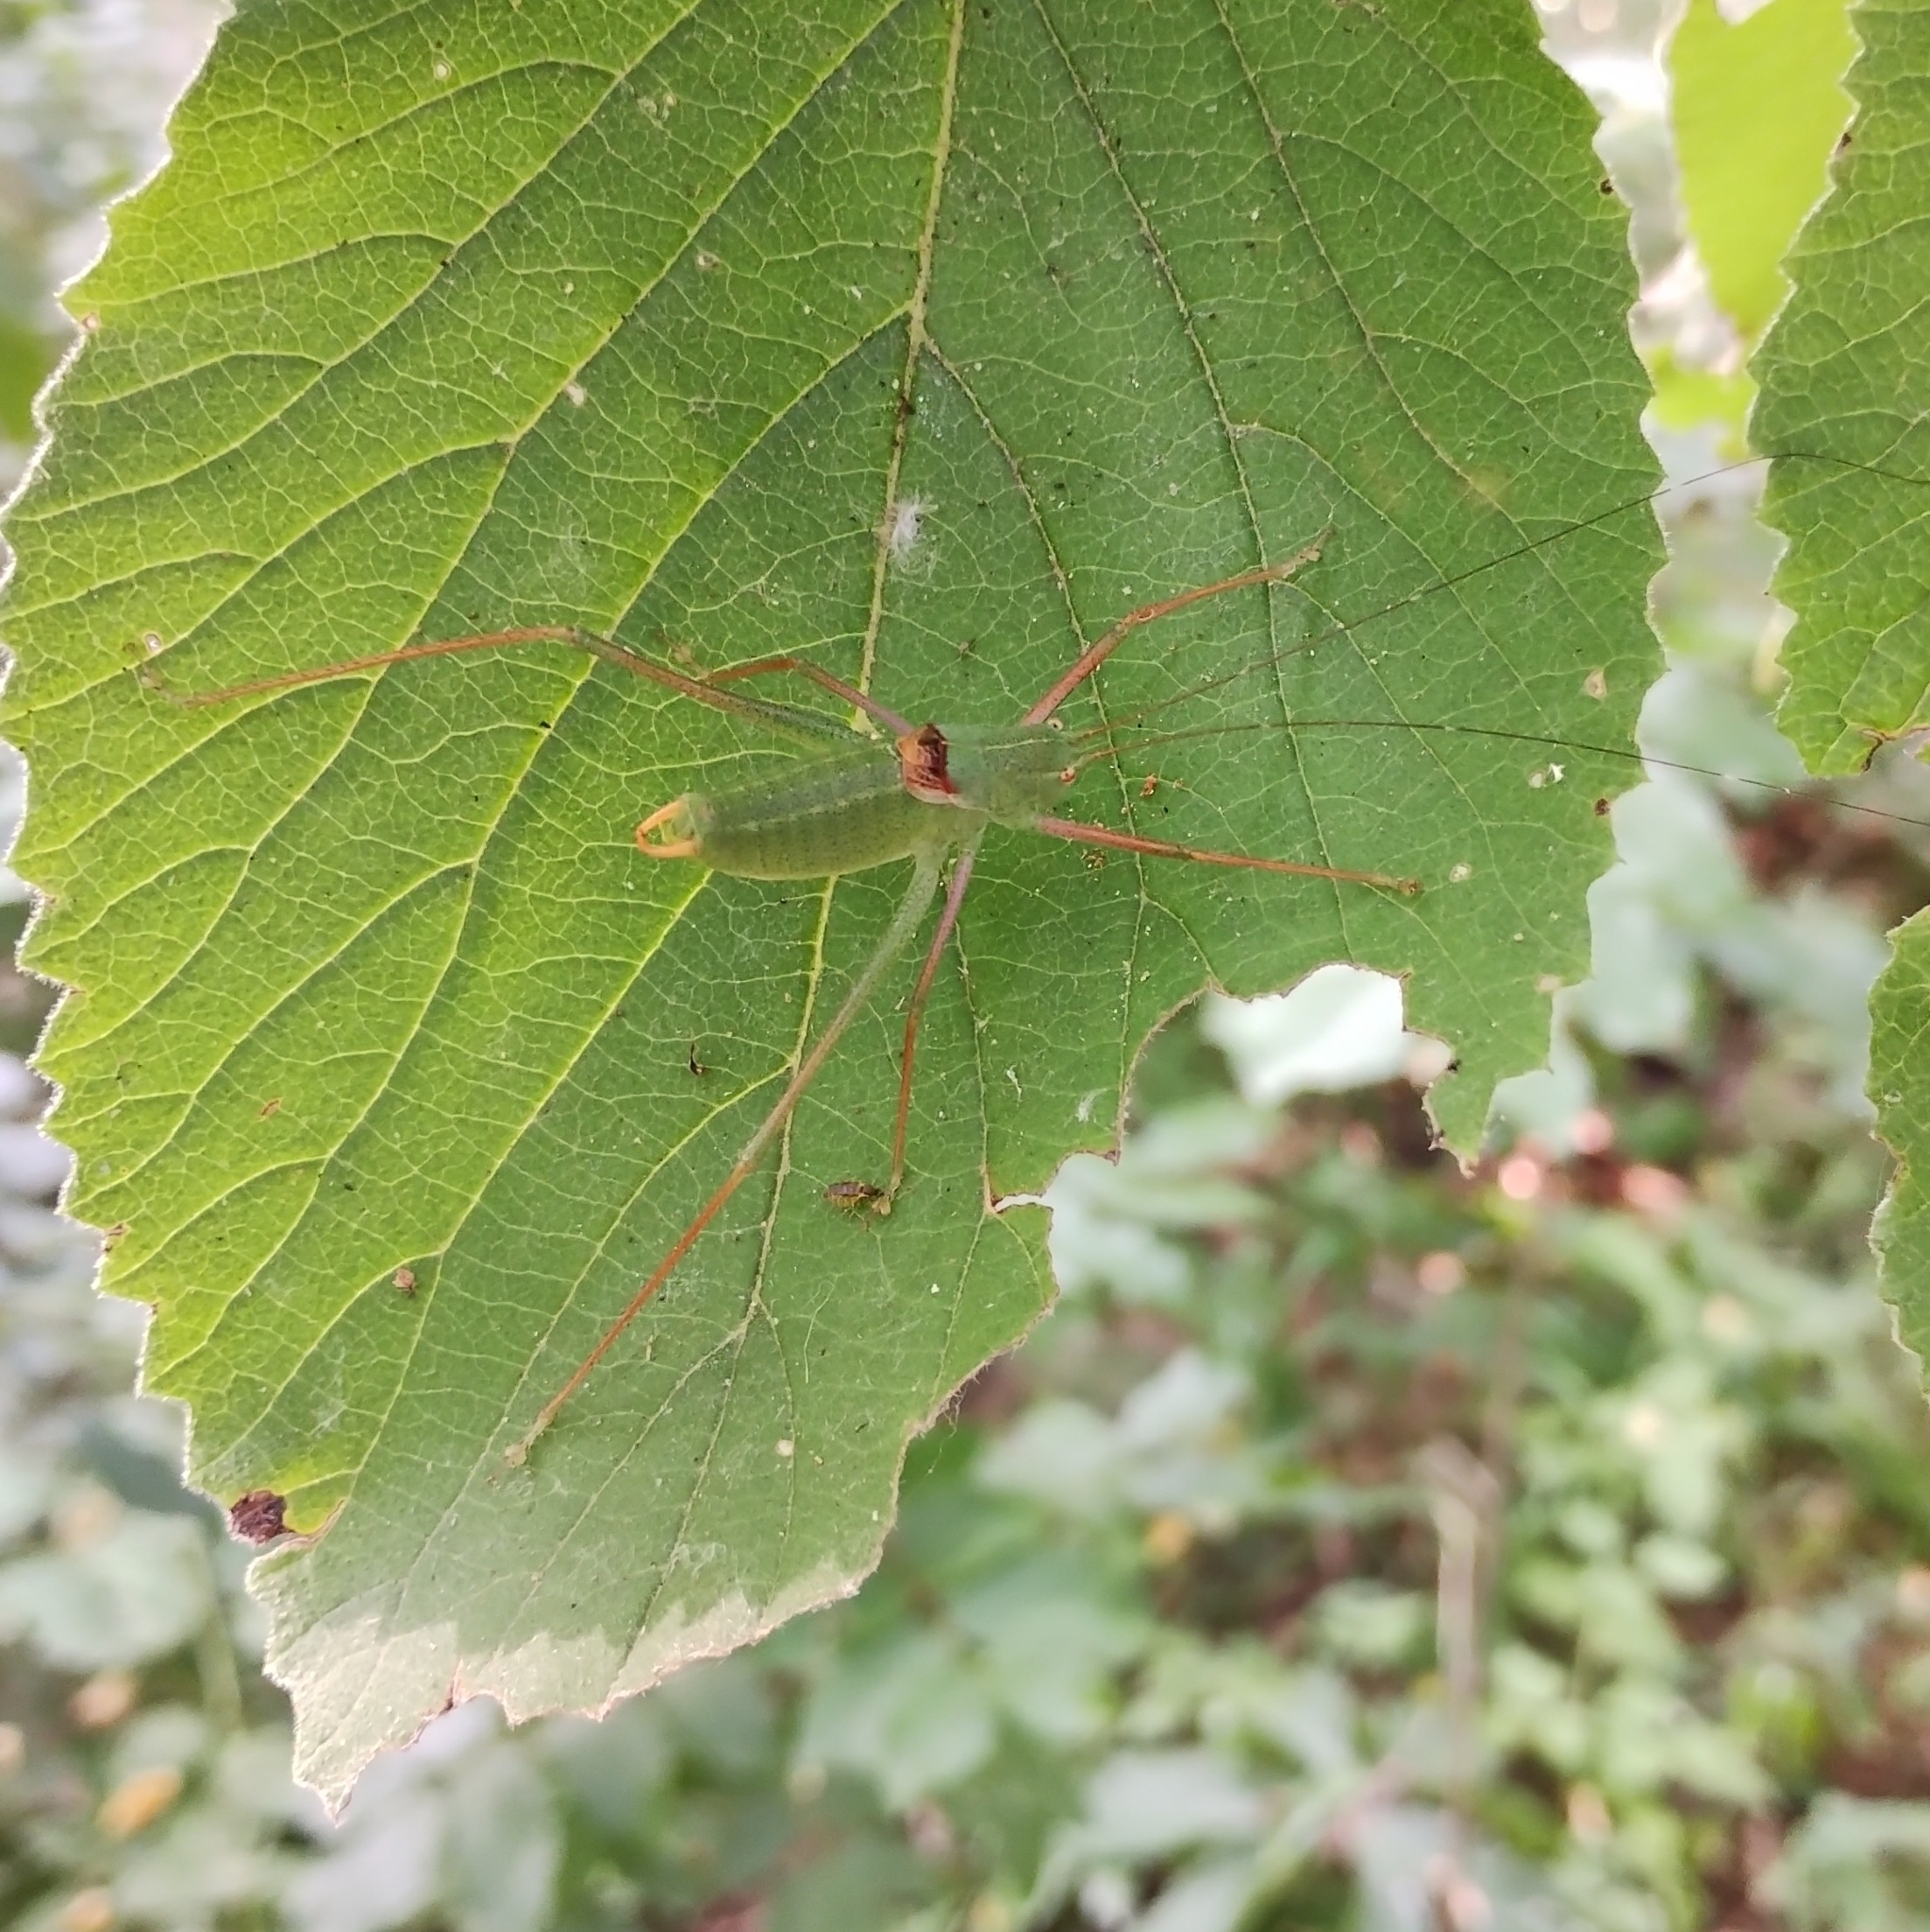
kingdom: Animalia
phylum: Arthropoda
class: Insecta
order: Orthoptera
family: Tettigoniidae
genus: Poecilimon
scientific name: Poecilimon schmidtii
